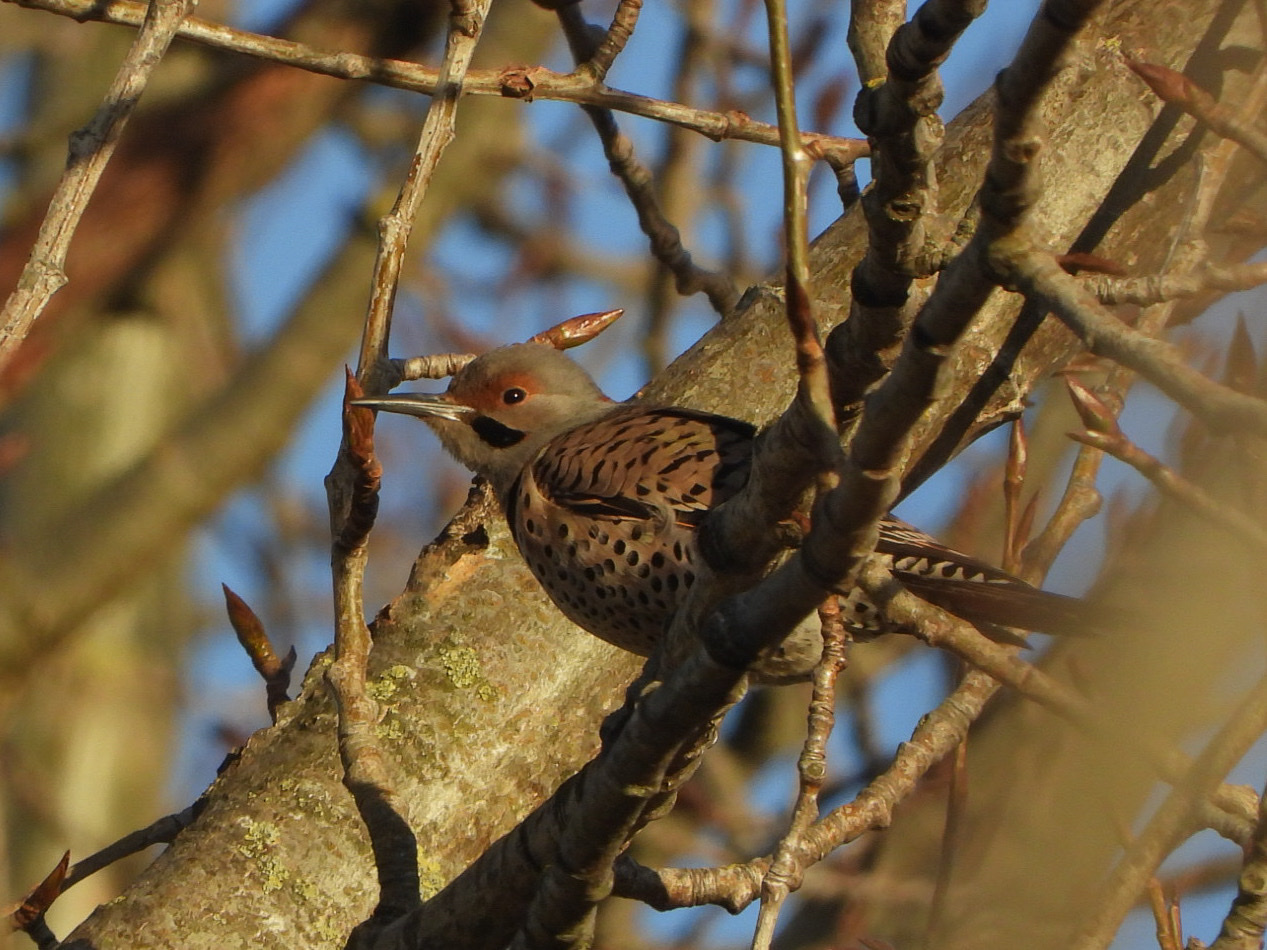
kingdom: Animalia
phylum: Chordata
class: Aves
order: Piciformes
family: Picidae
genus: Colaptes
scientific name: Colaptes
